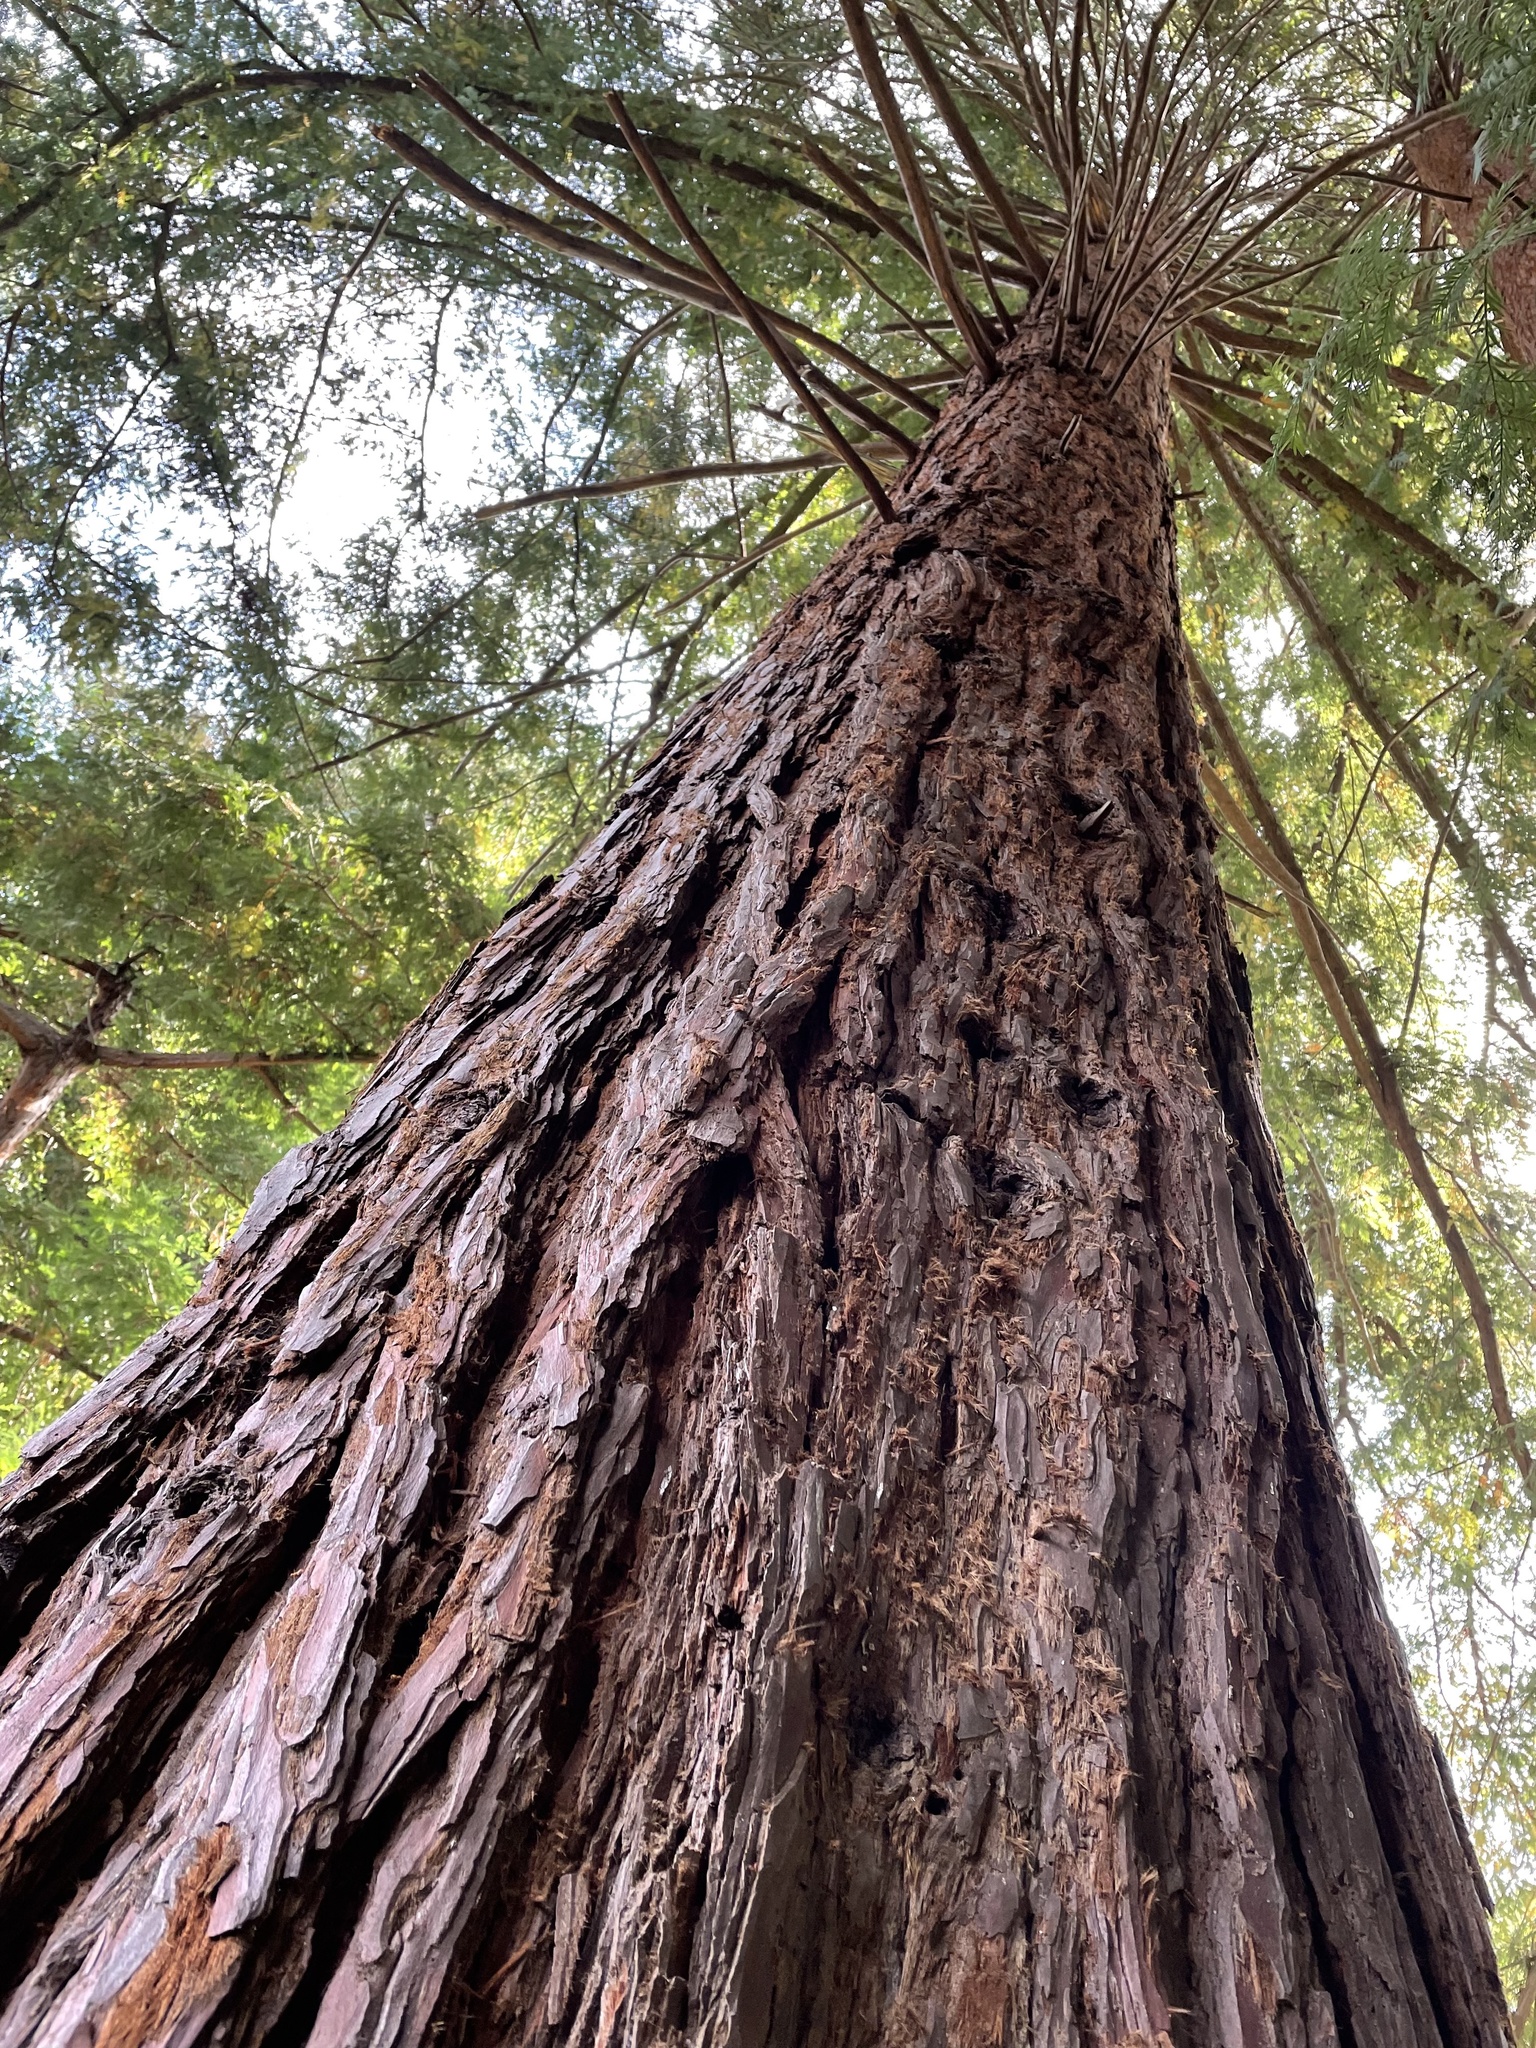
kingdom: Plantae
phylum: Tracheophyta
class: Pinopsida
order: Pinales
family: Cupressaceae
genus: Sequoia
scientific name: Sequoia sempervirens
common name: Coast redwood
